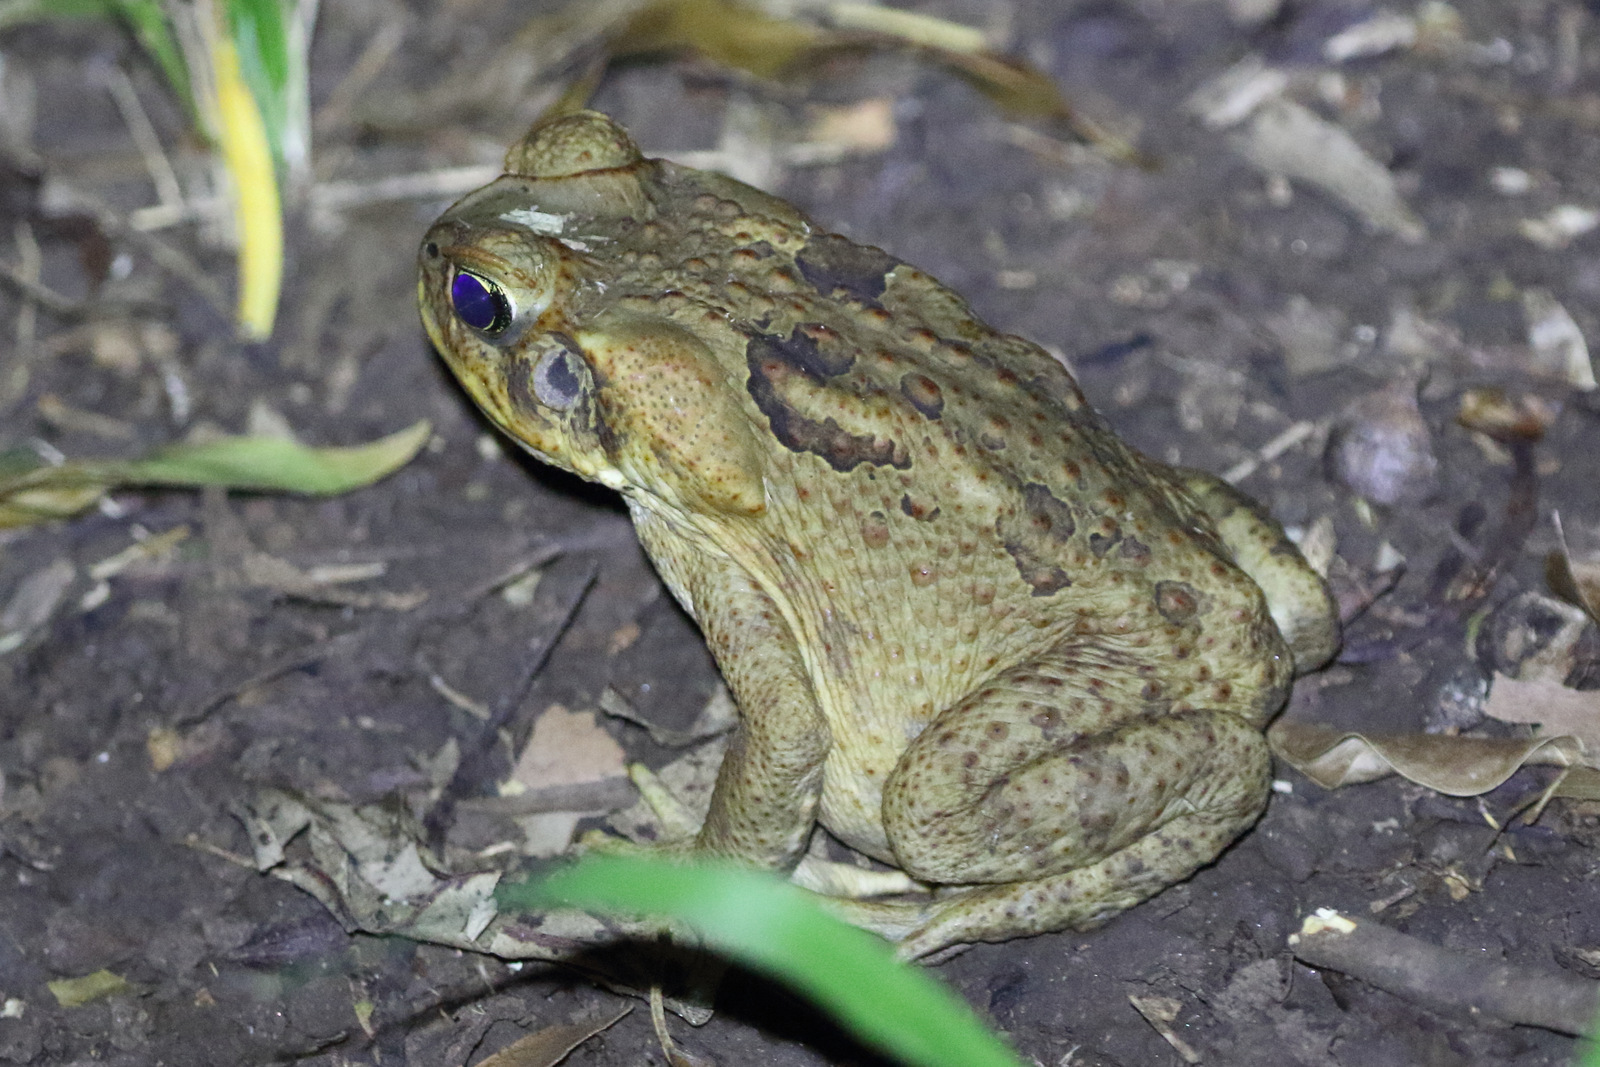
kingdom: Animalia
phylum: Chordata
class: Amphibia
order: Anura
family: Bufonidae
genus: Rhinella
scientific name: Rhinella marina
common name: Cane toad
